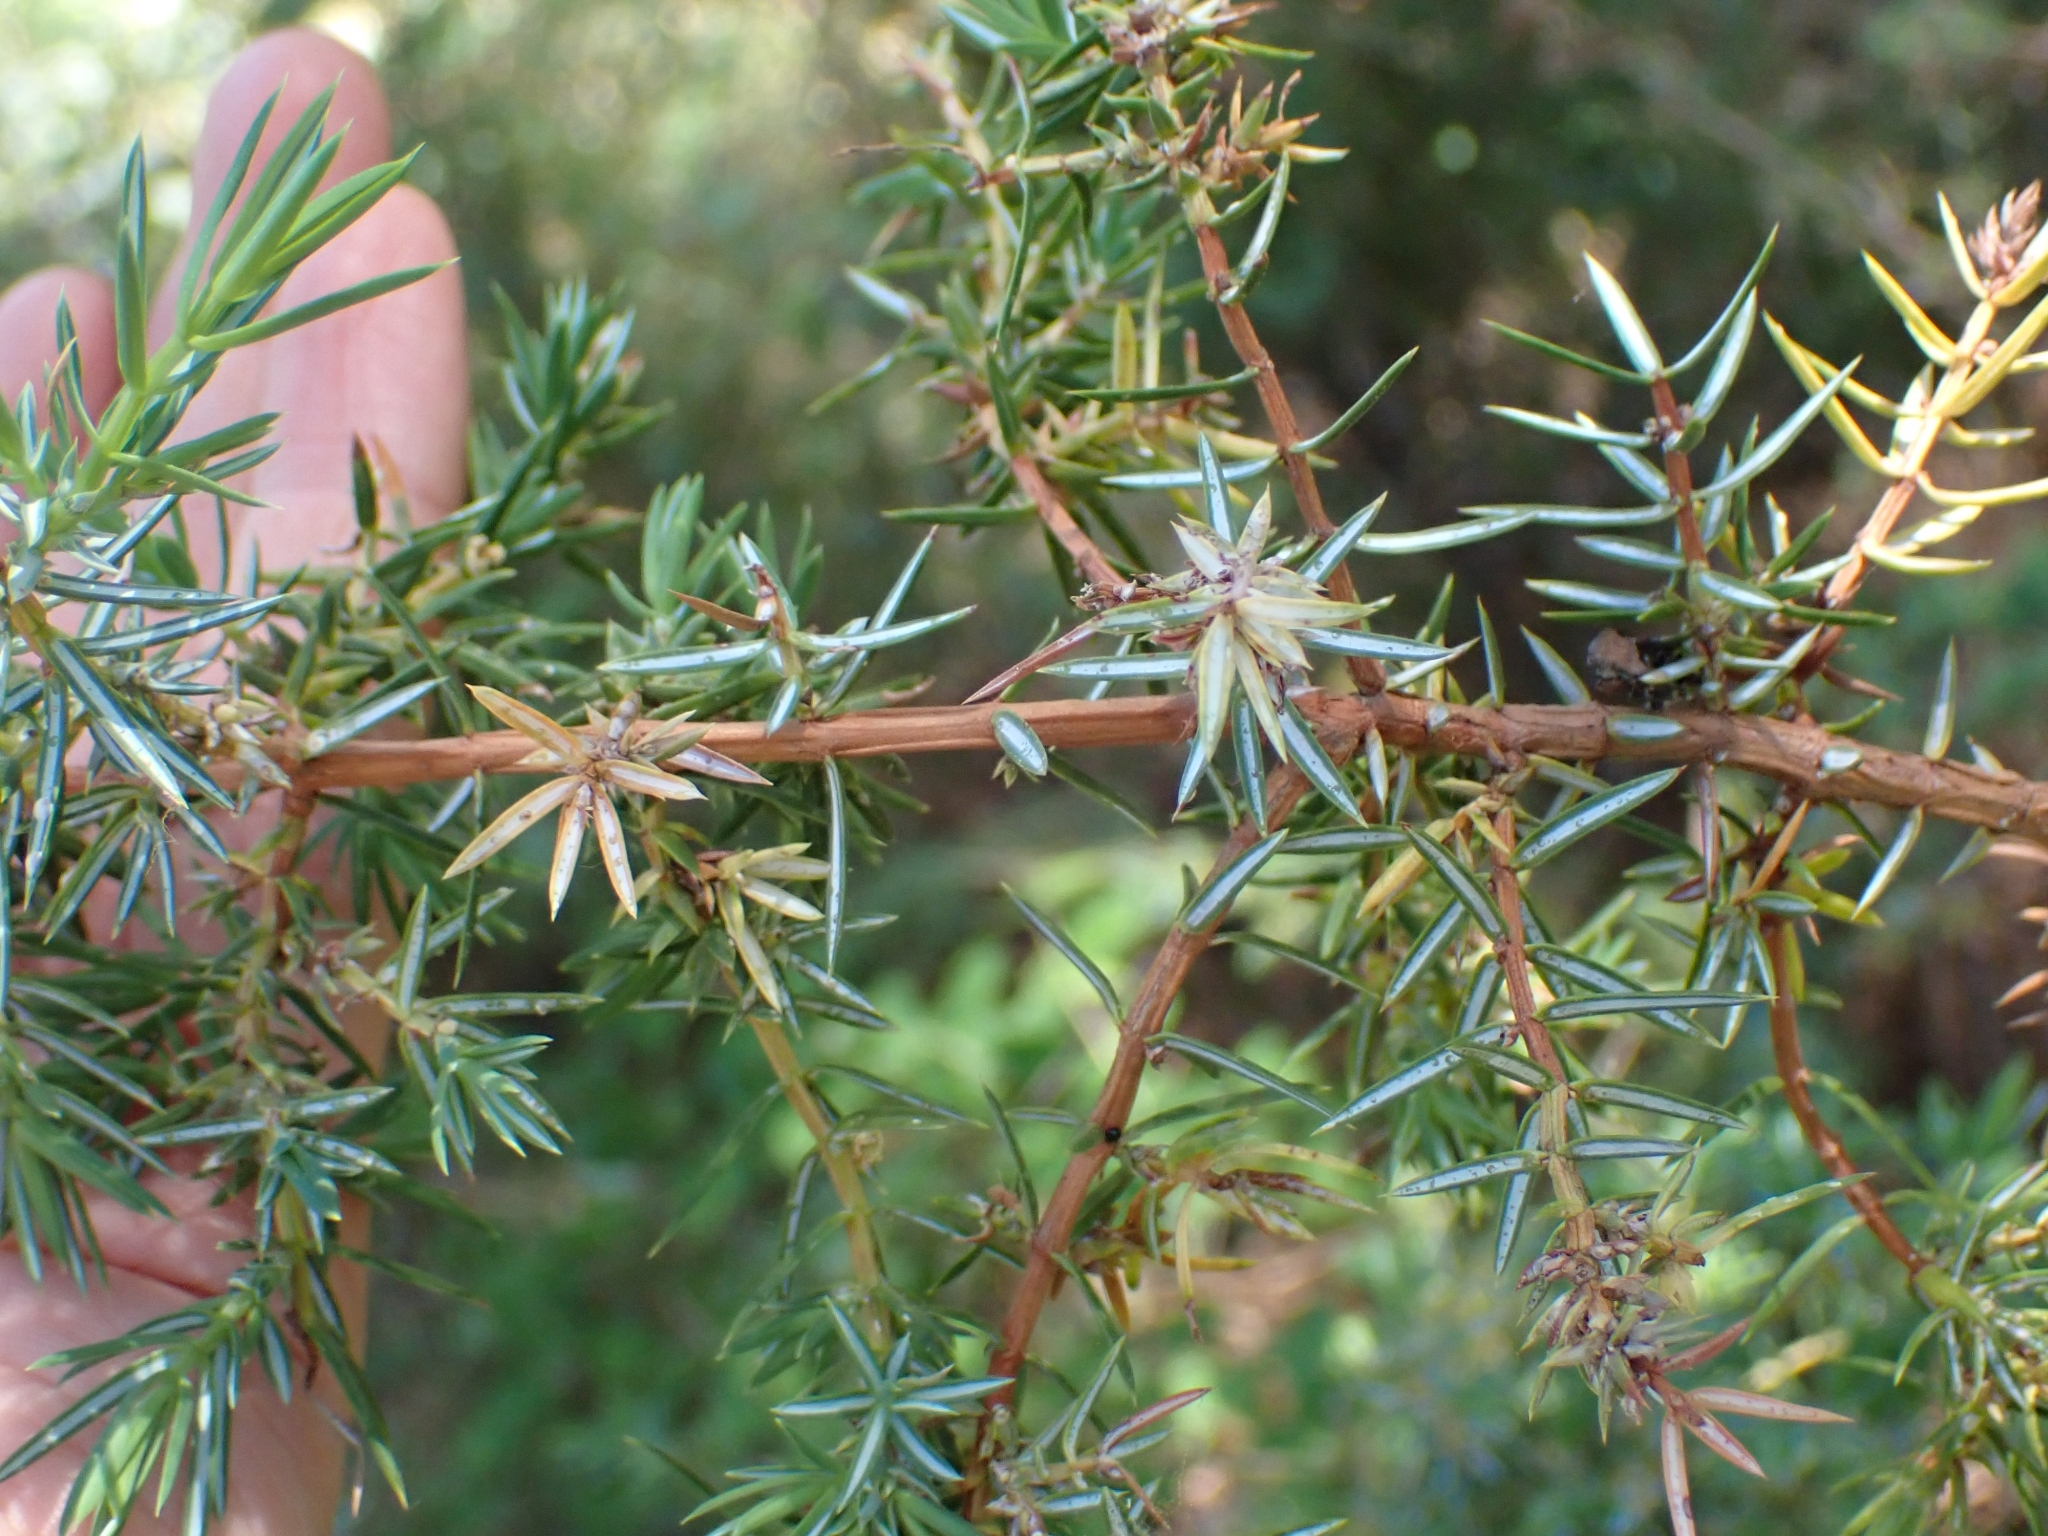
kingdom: Plantae
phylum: Tracheophyta
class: Pinopsida
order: Pinales
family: Cupressaceae
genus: Juniperus
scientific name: Juniperus communis
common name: Common juniper
